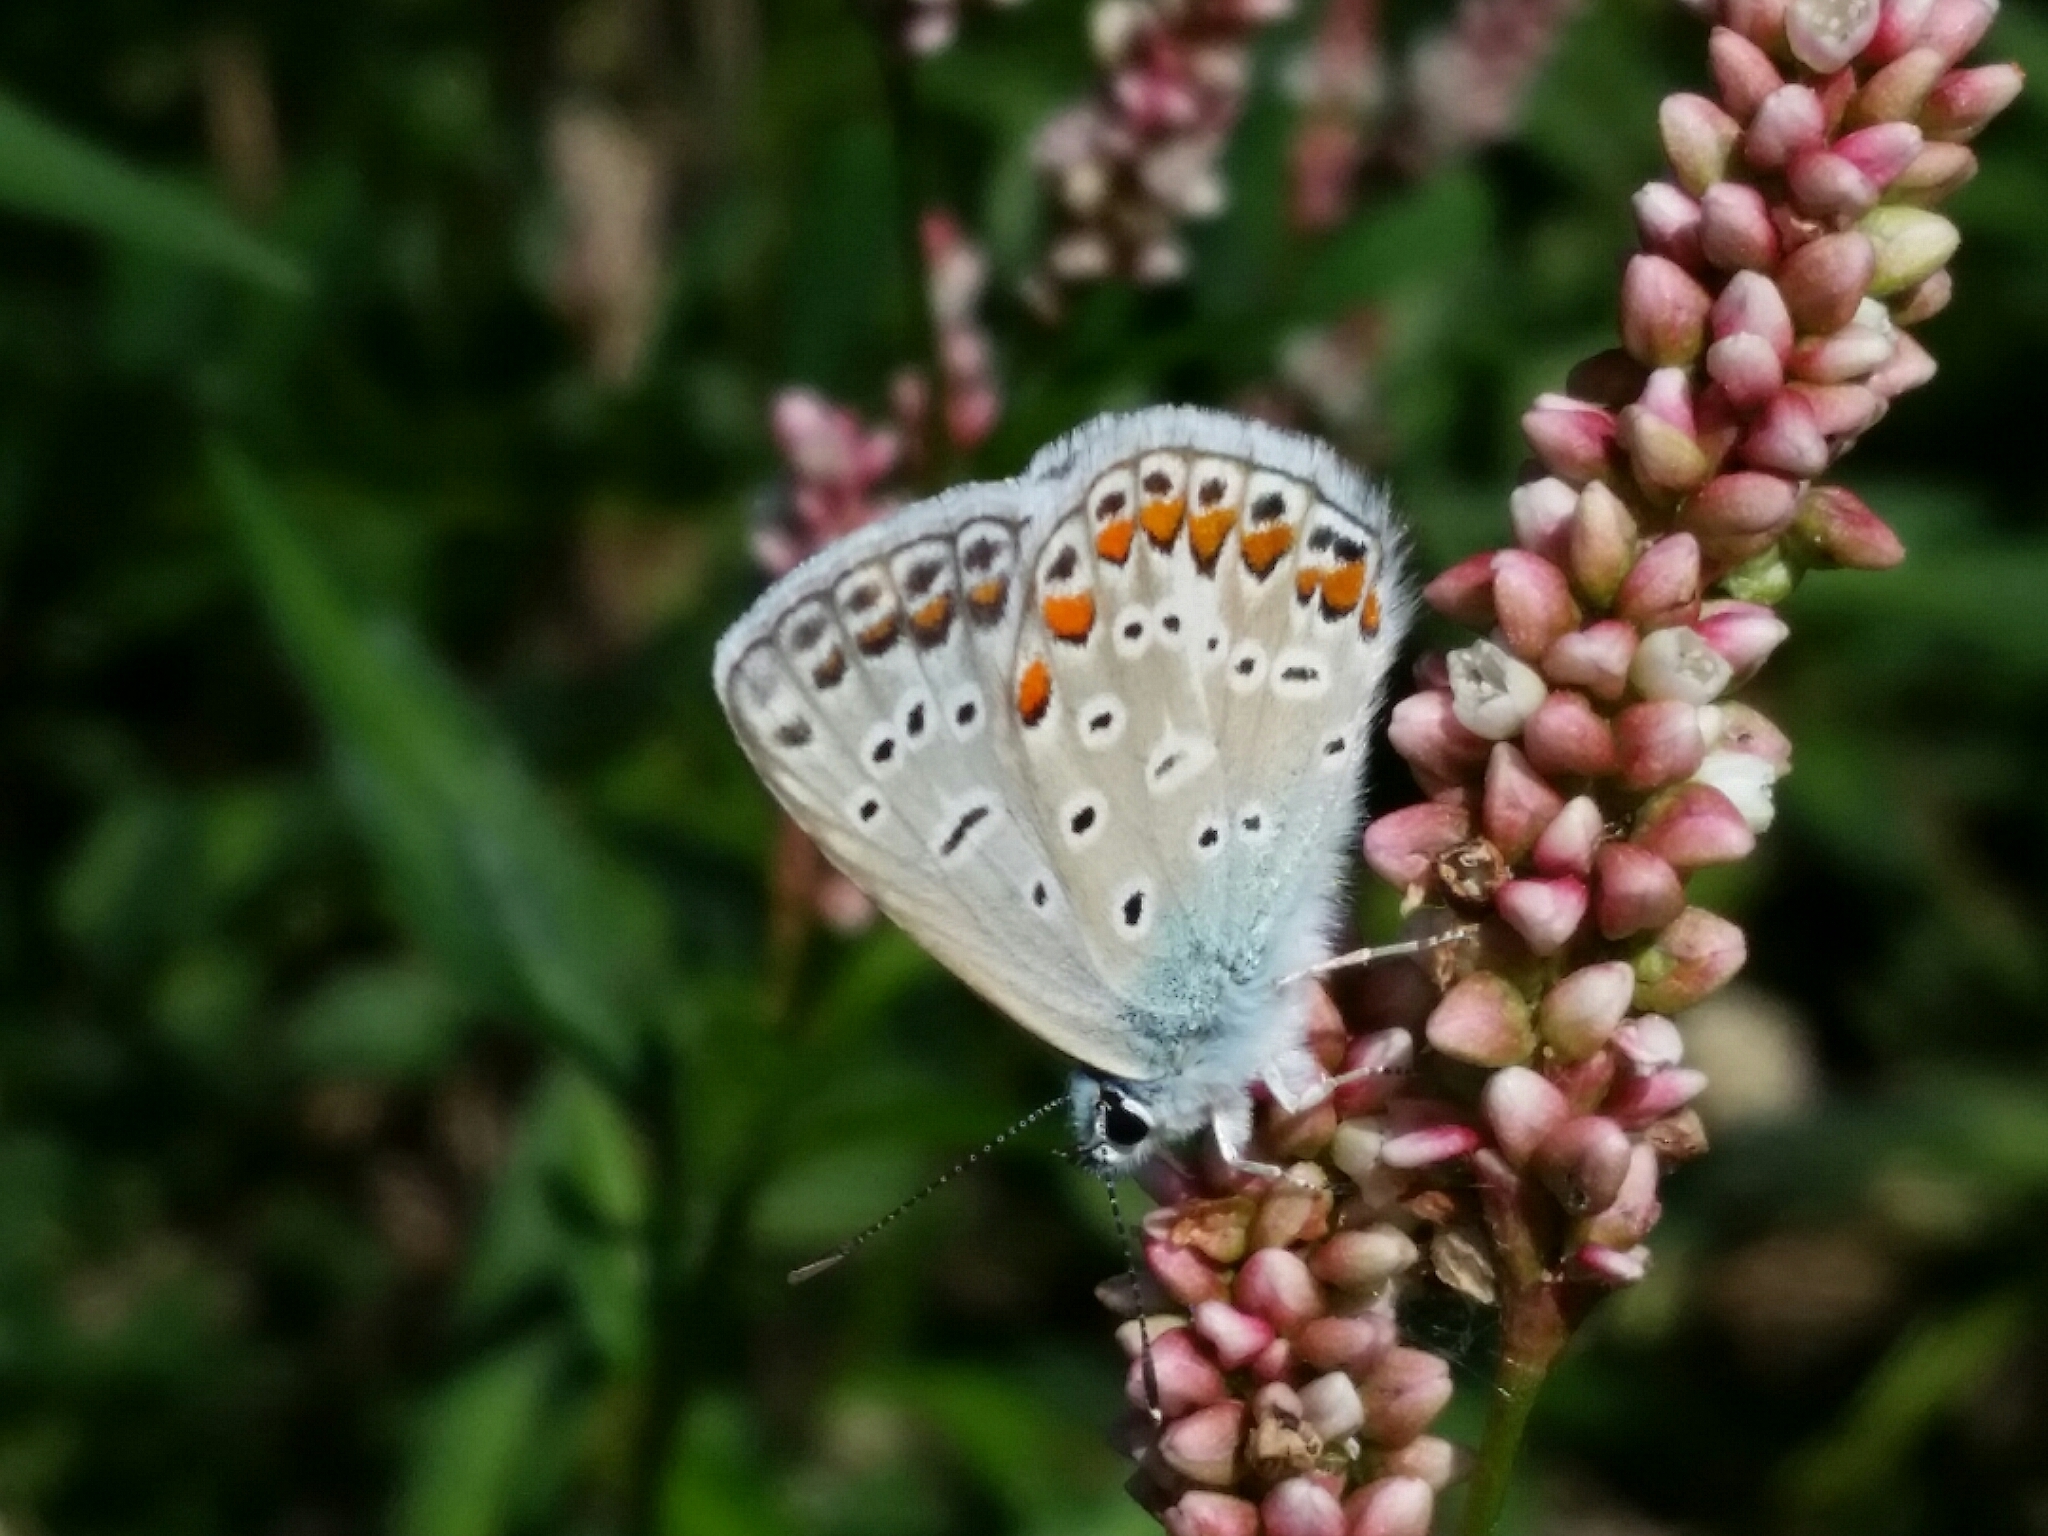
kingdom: Animalia
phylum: Arthropoda
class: Insecta
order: Lepidoptera
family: Lycaenidae
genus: Polyommatus
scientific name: Polyommatus icarus
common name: Common blue
